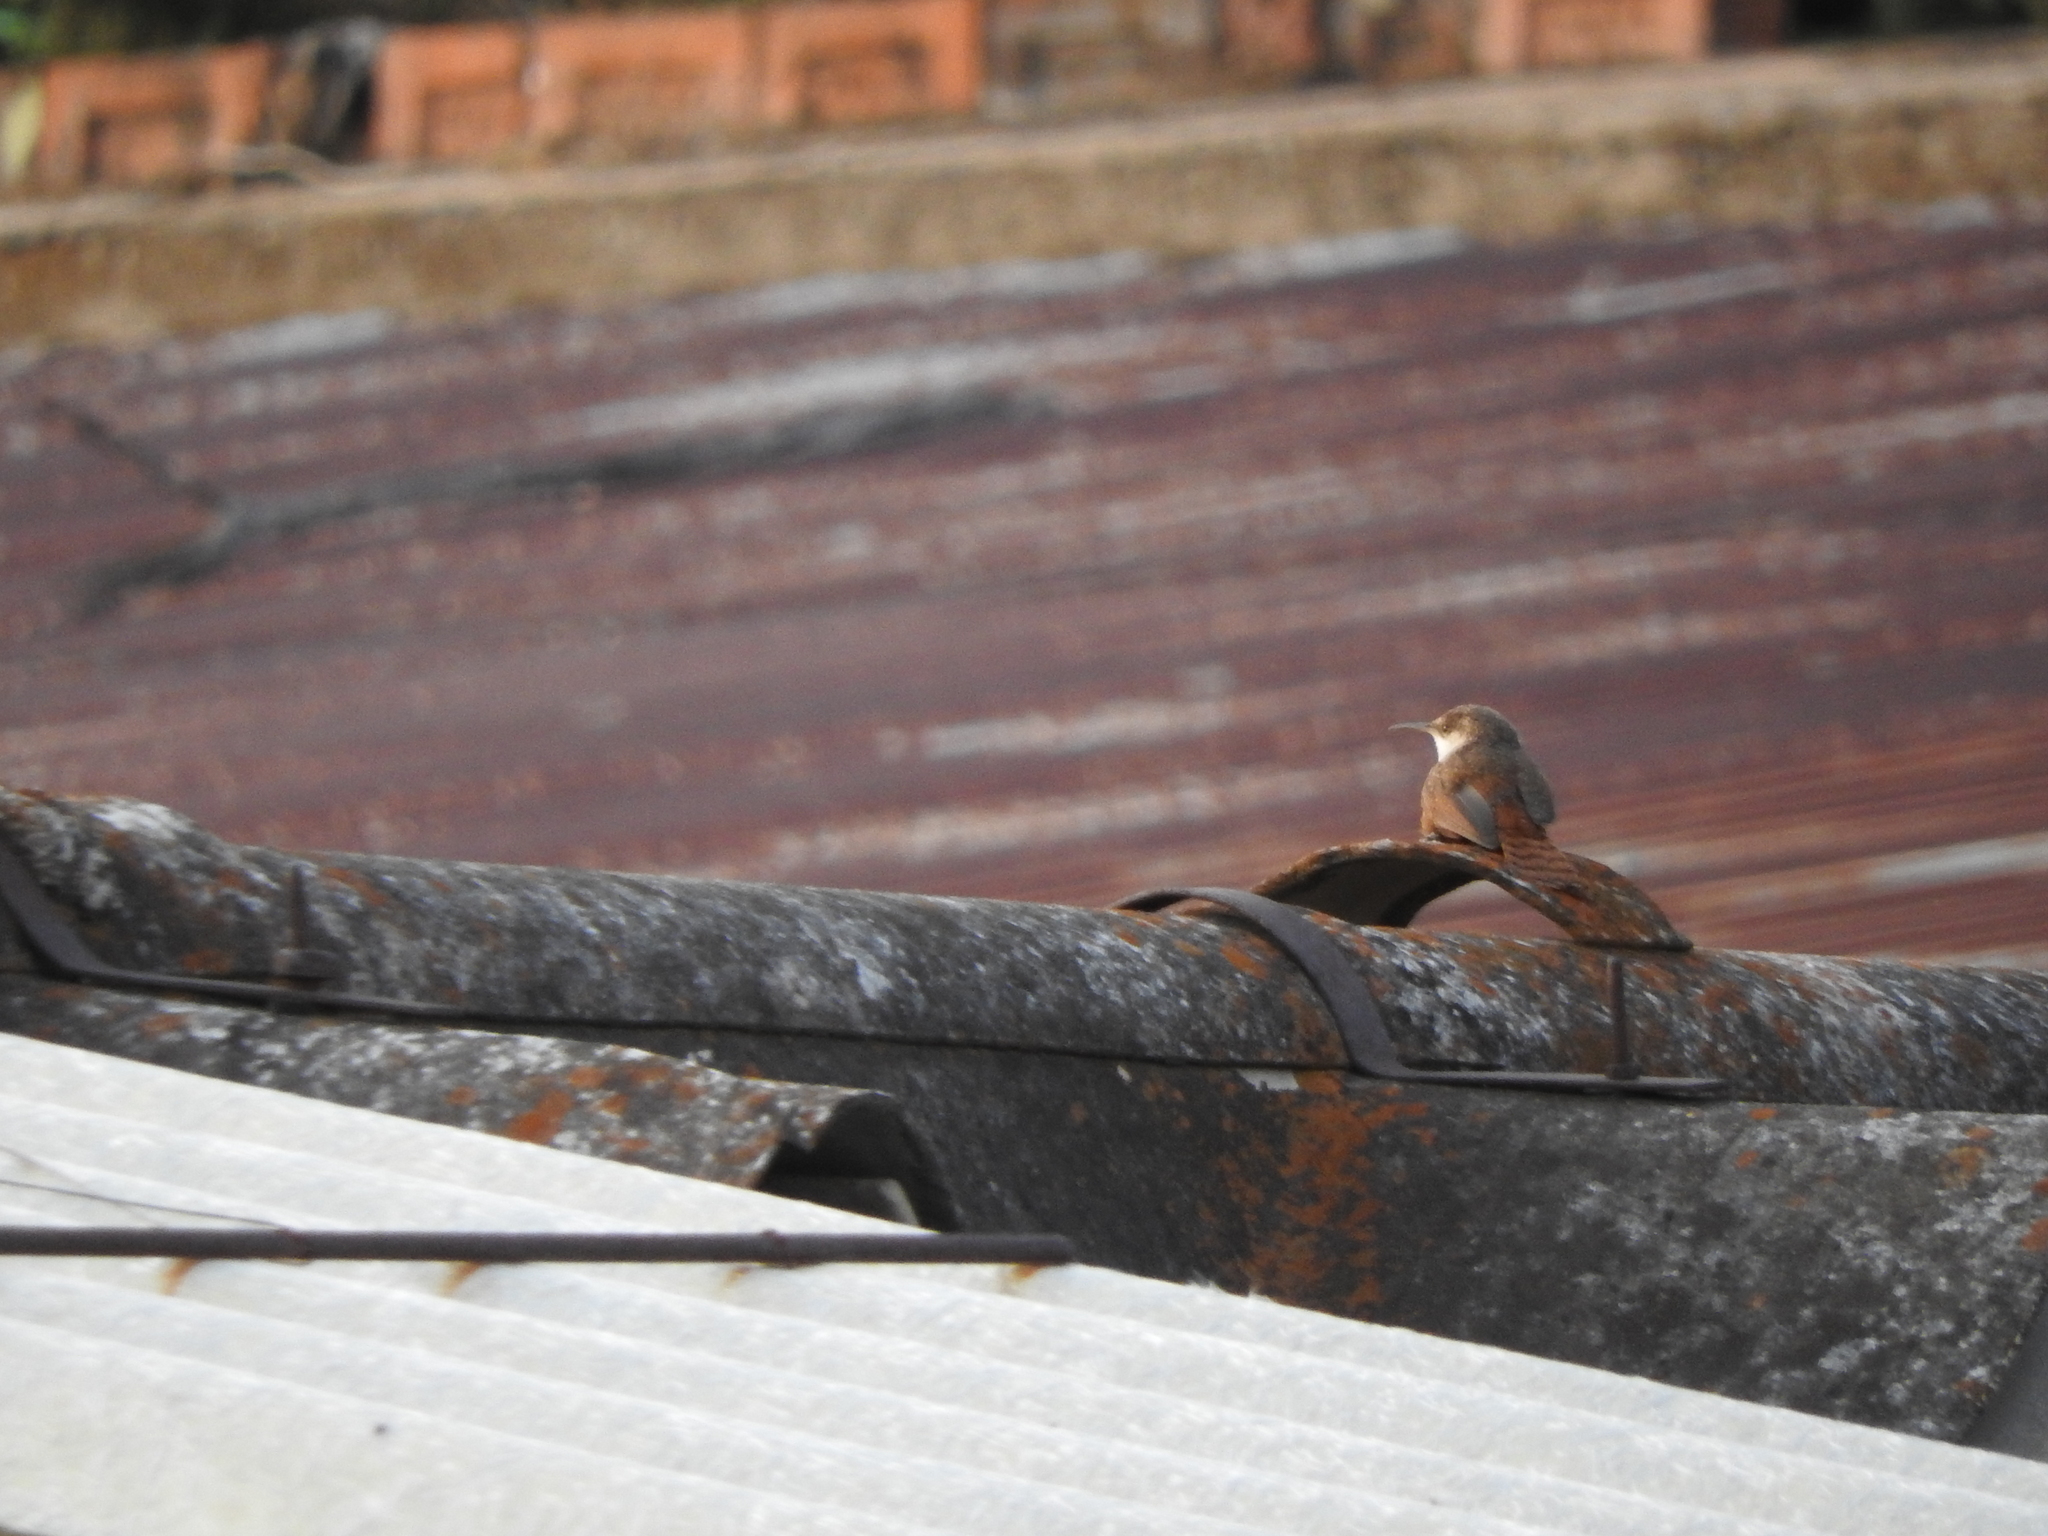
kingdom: Animalia
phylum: Chordata
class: Aves
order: Passeriformes
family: Troglodytidae
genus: Catherpes
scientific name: Catherpes mexicanus
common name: Canyon wren
